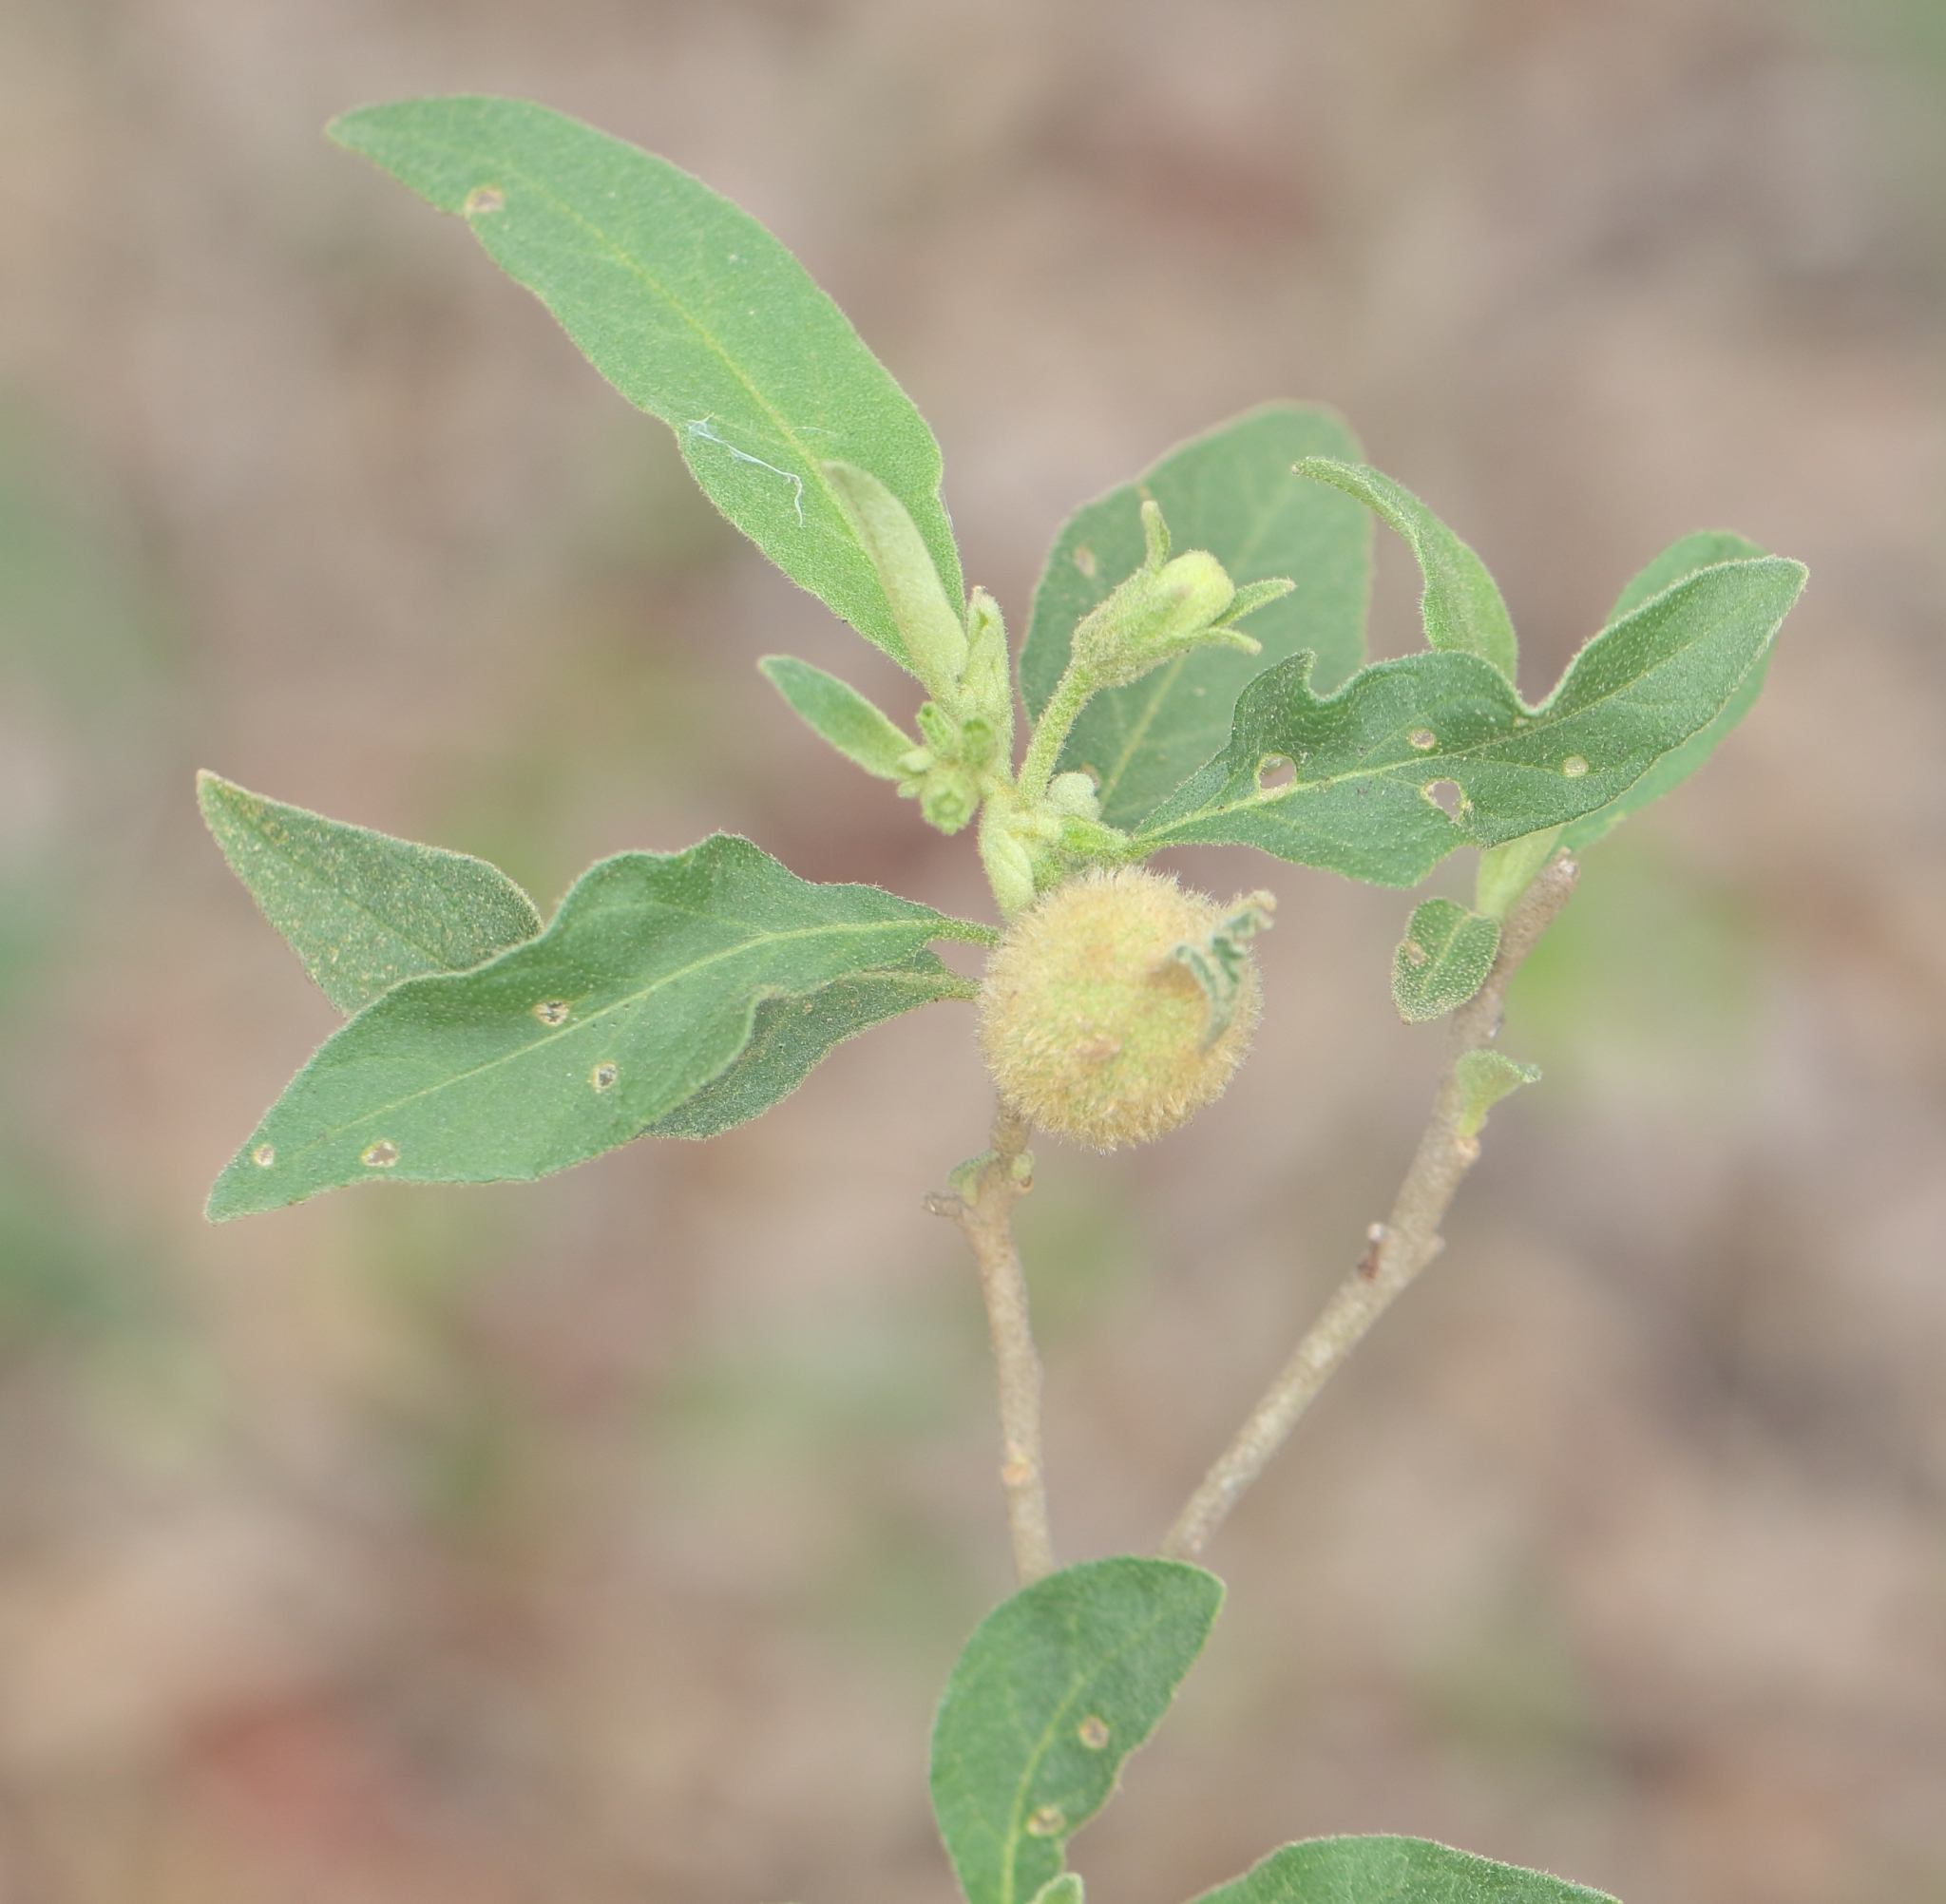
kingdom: Plantae
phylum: Tracheophyta
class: Magnoliopsida
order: Solanales
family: Solanaceae
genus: Solanum
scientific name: Solanum campylacanthum
